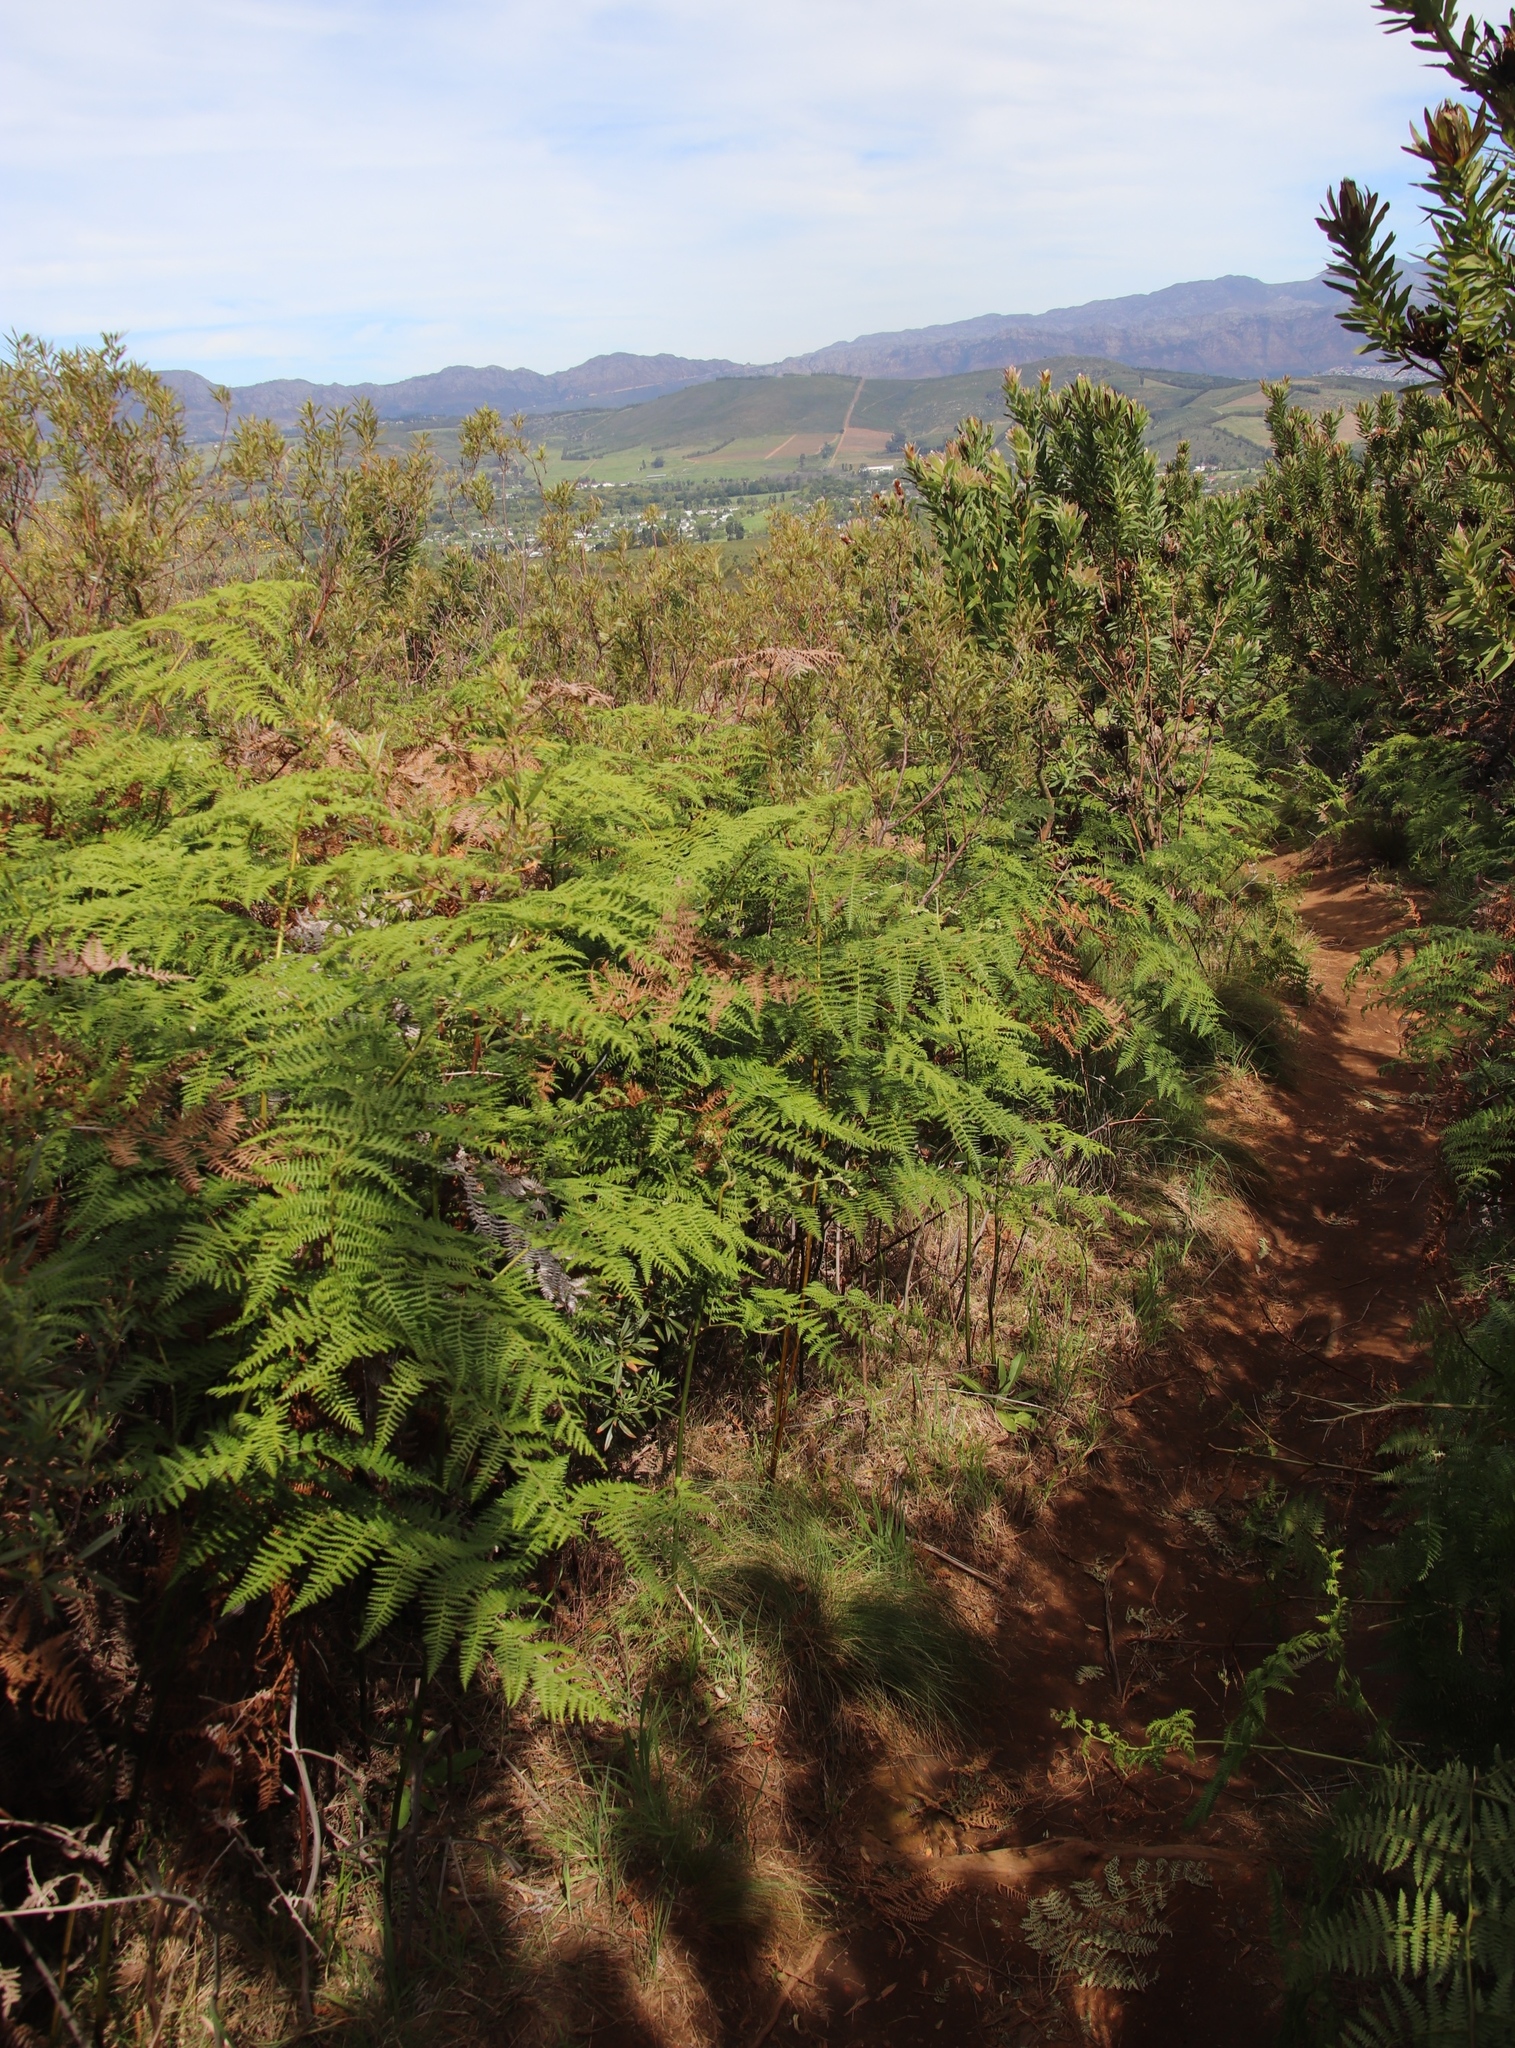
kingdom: Plantae
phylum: Tracheophyta
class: Polypodiopsida
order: Polypodiales
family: Dennstaedtiaceae
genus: Pteridium
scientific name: Pteridium aquilinum
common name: Bracken
